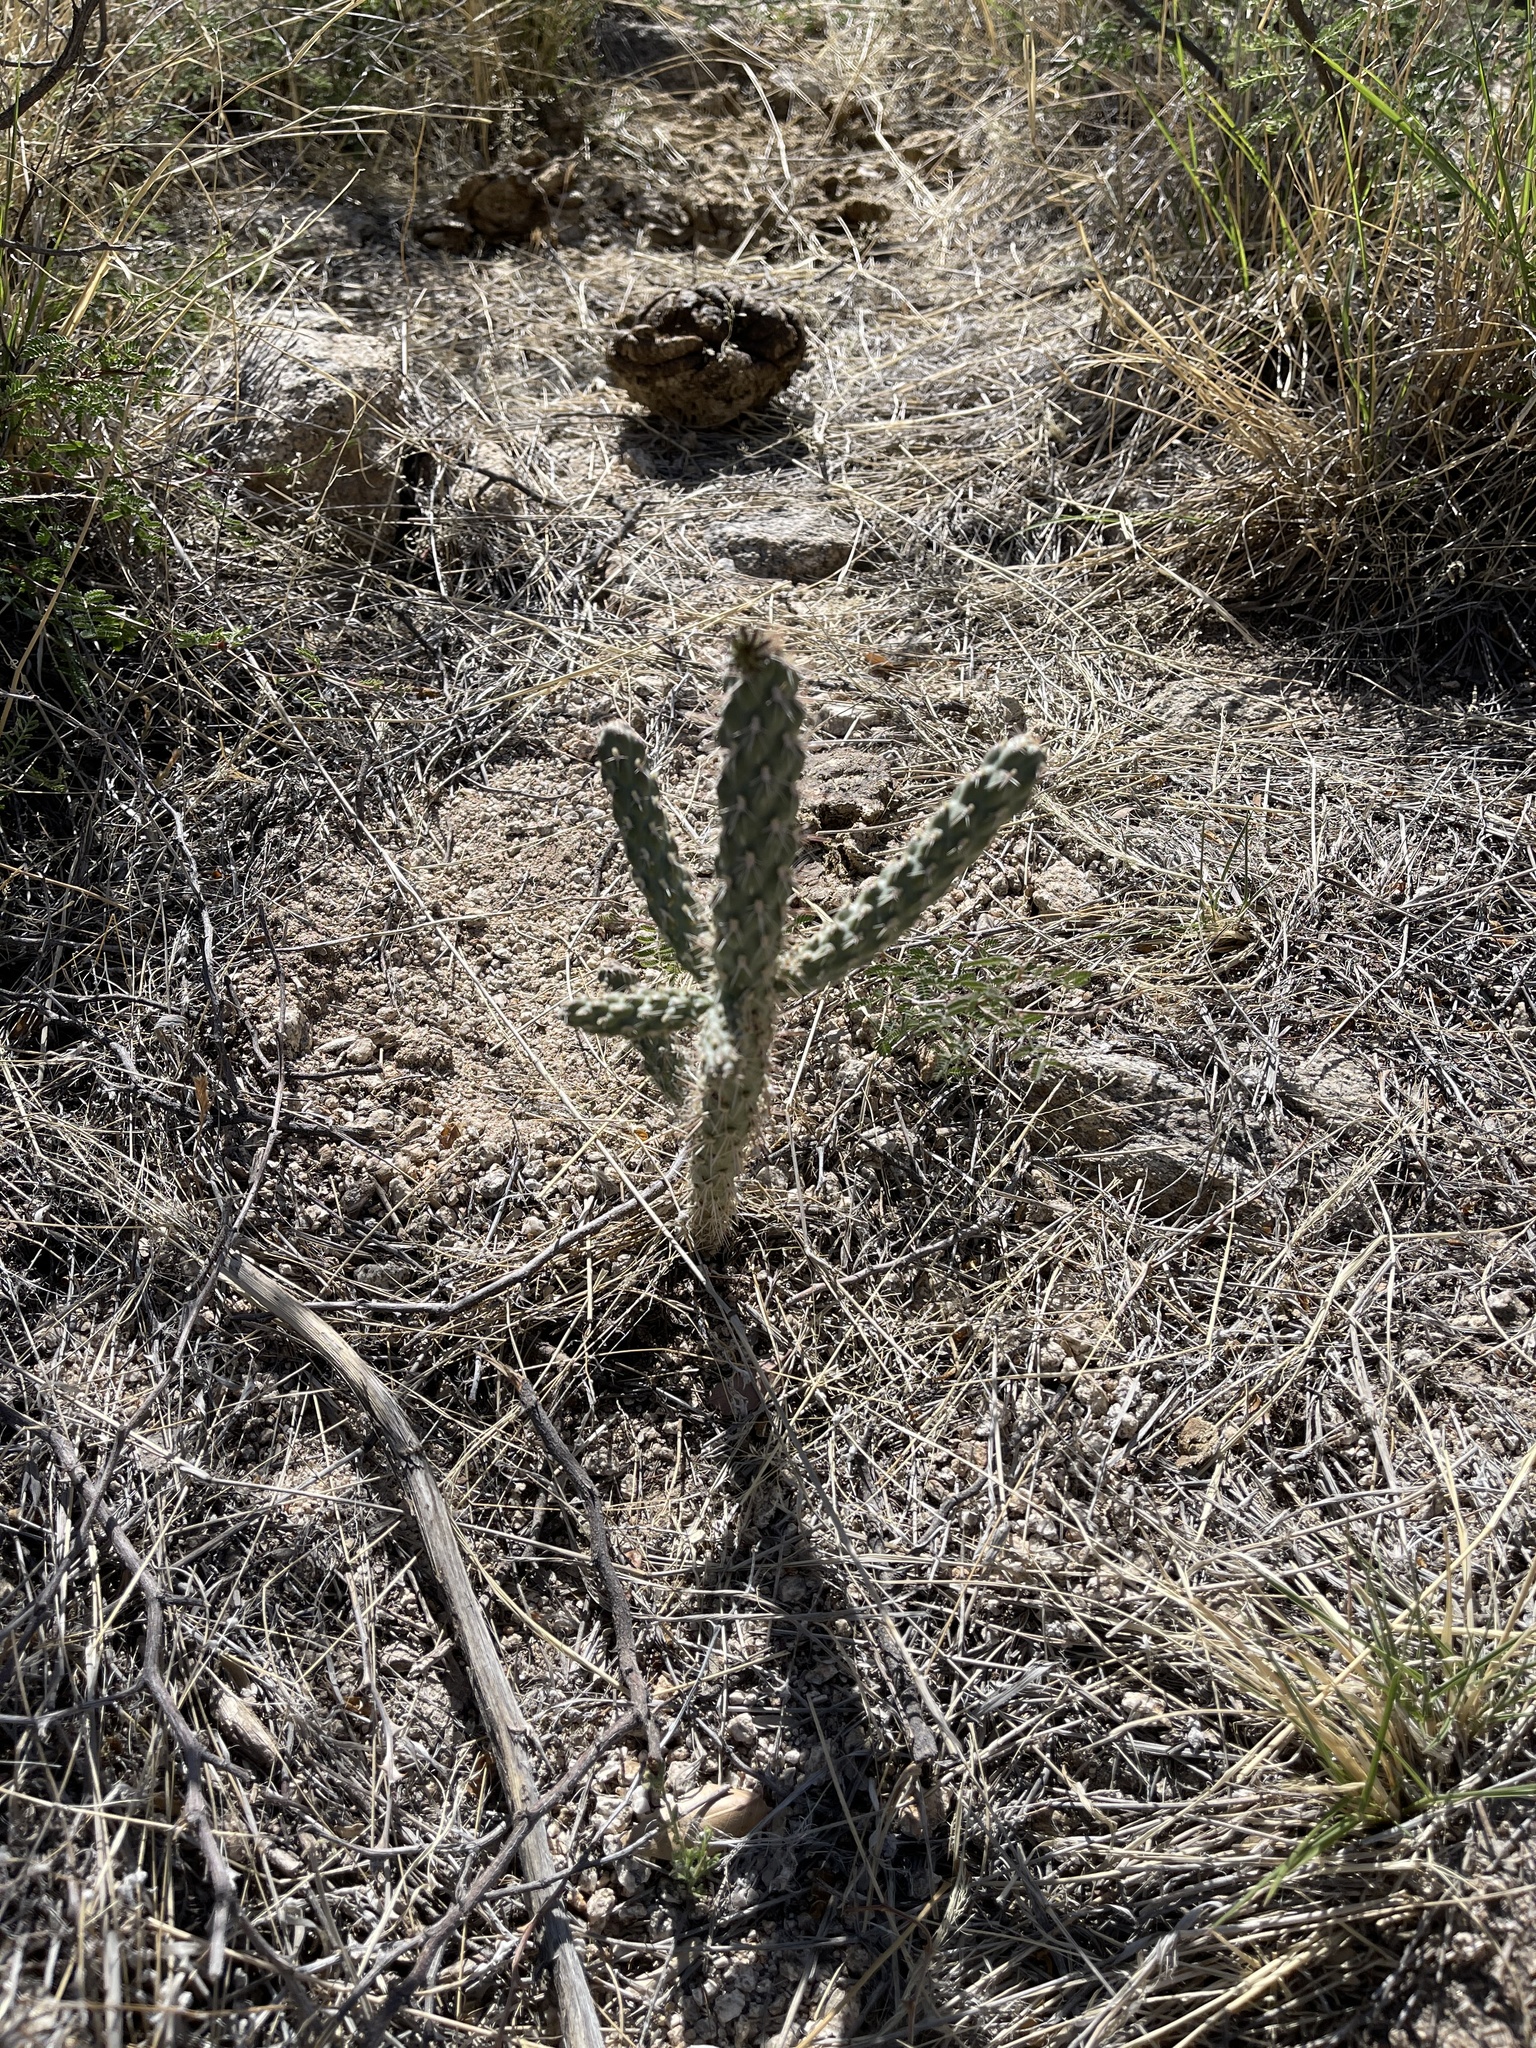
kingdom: Plantae
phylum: Tracheophyta
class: Magnoliopsida
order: Caryophyllales
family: Cactaceae
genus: Cylindropuntia
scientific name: Cylindropuntia imbricata
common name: Candelabrum cactus
